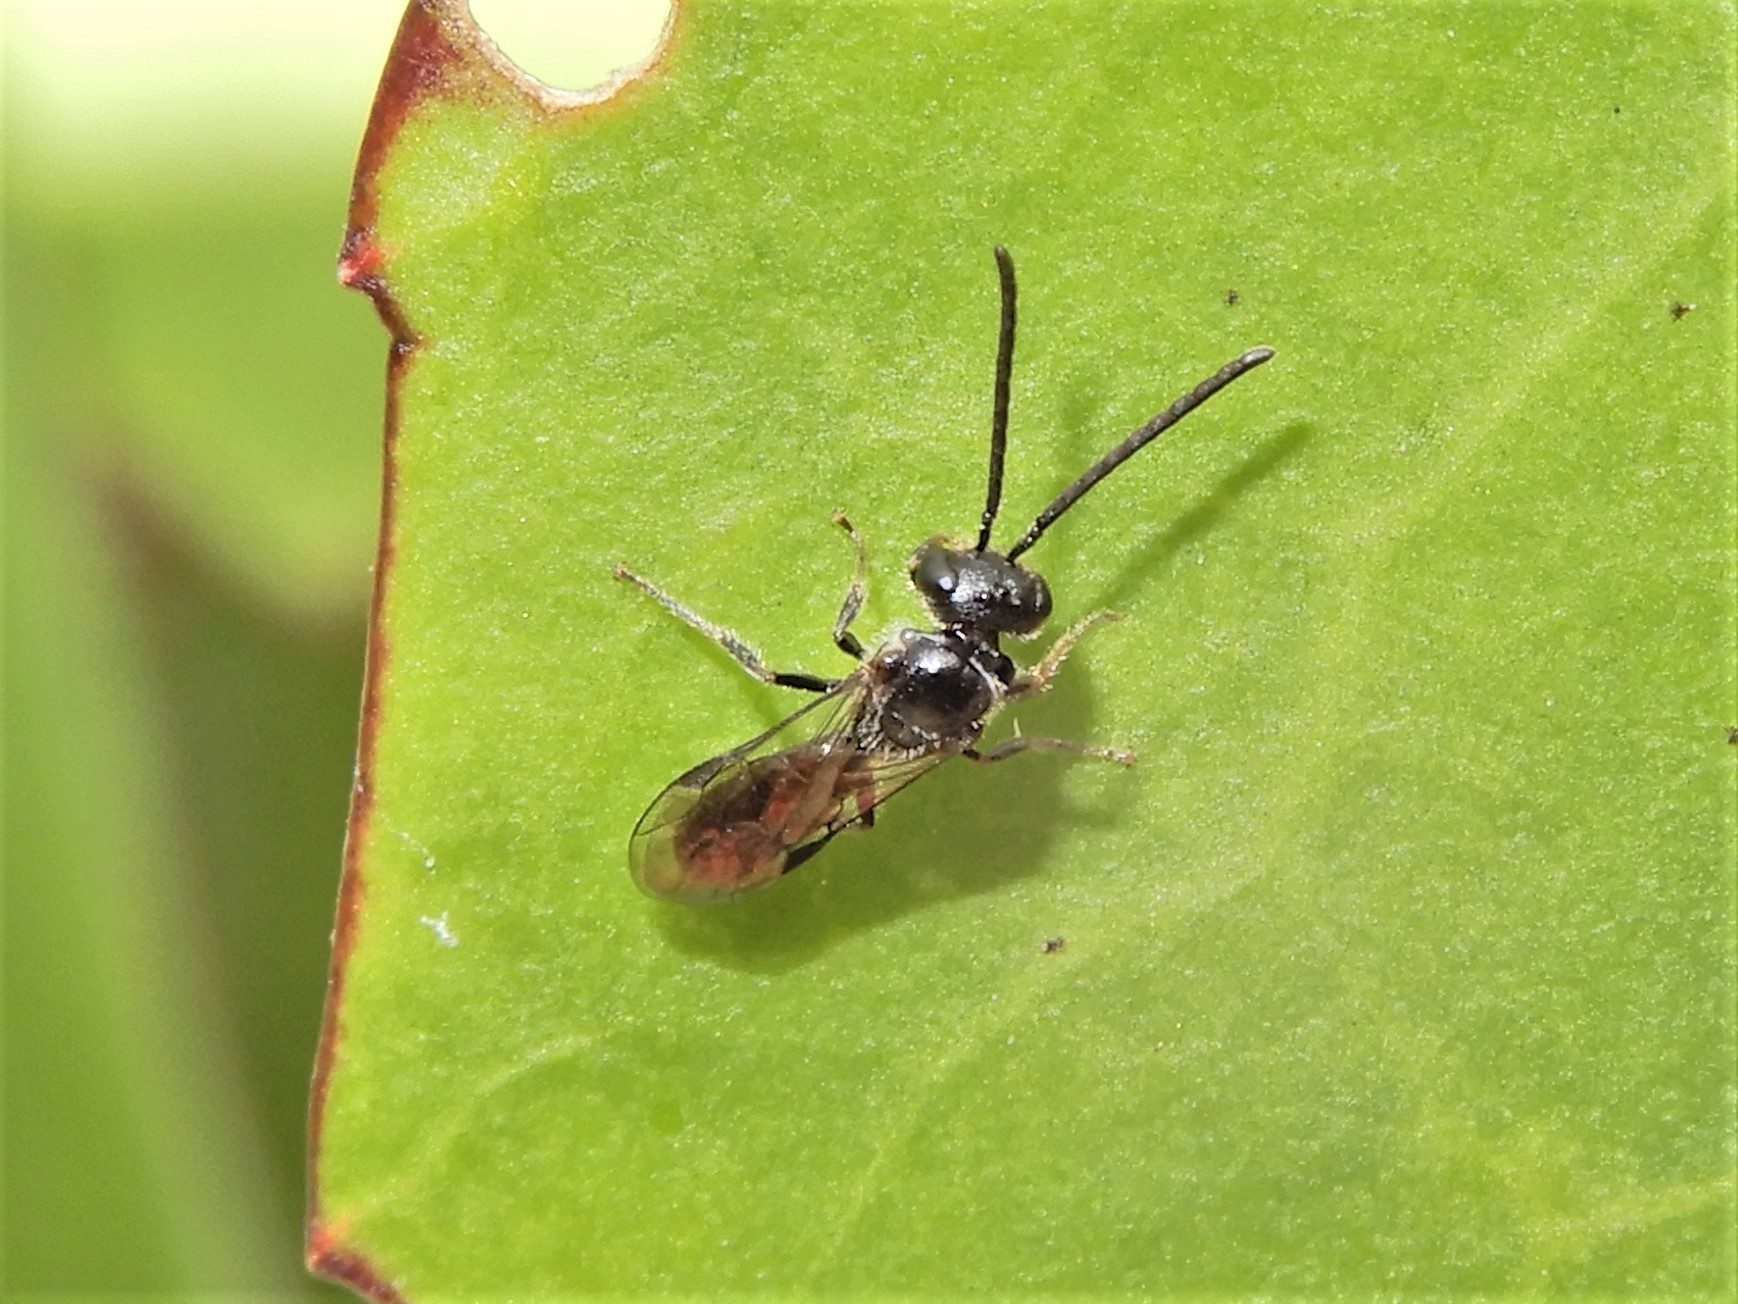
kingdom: Animalia
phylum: Arthropoda
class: Insecta
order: Hymenoptera
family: Halictidae
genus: Lasioglossum
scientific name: Lasioglossum sordidum
